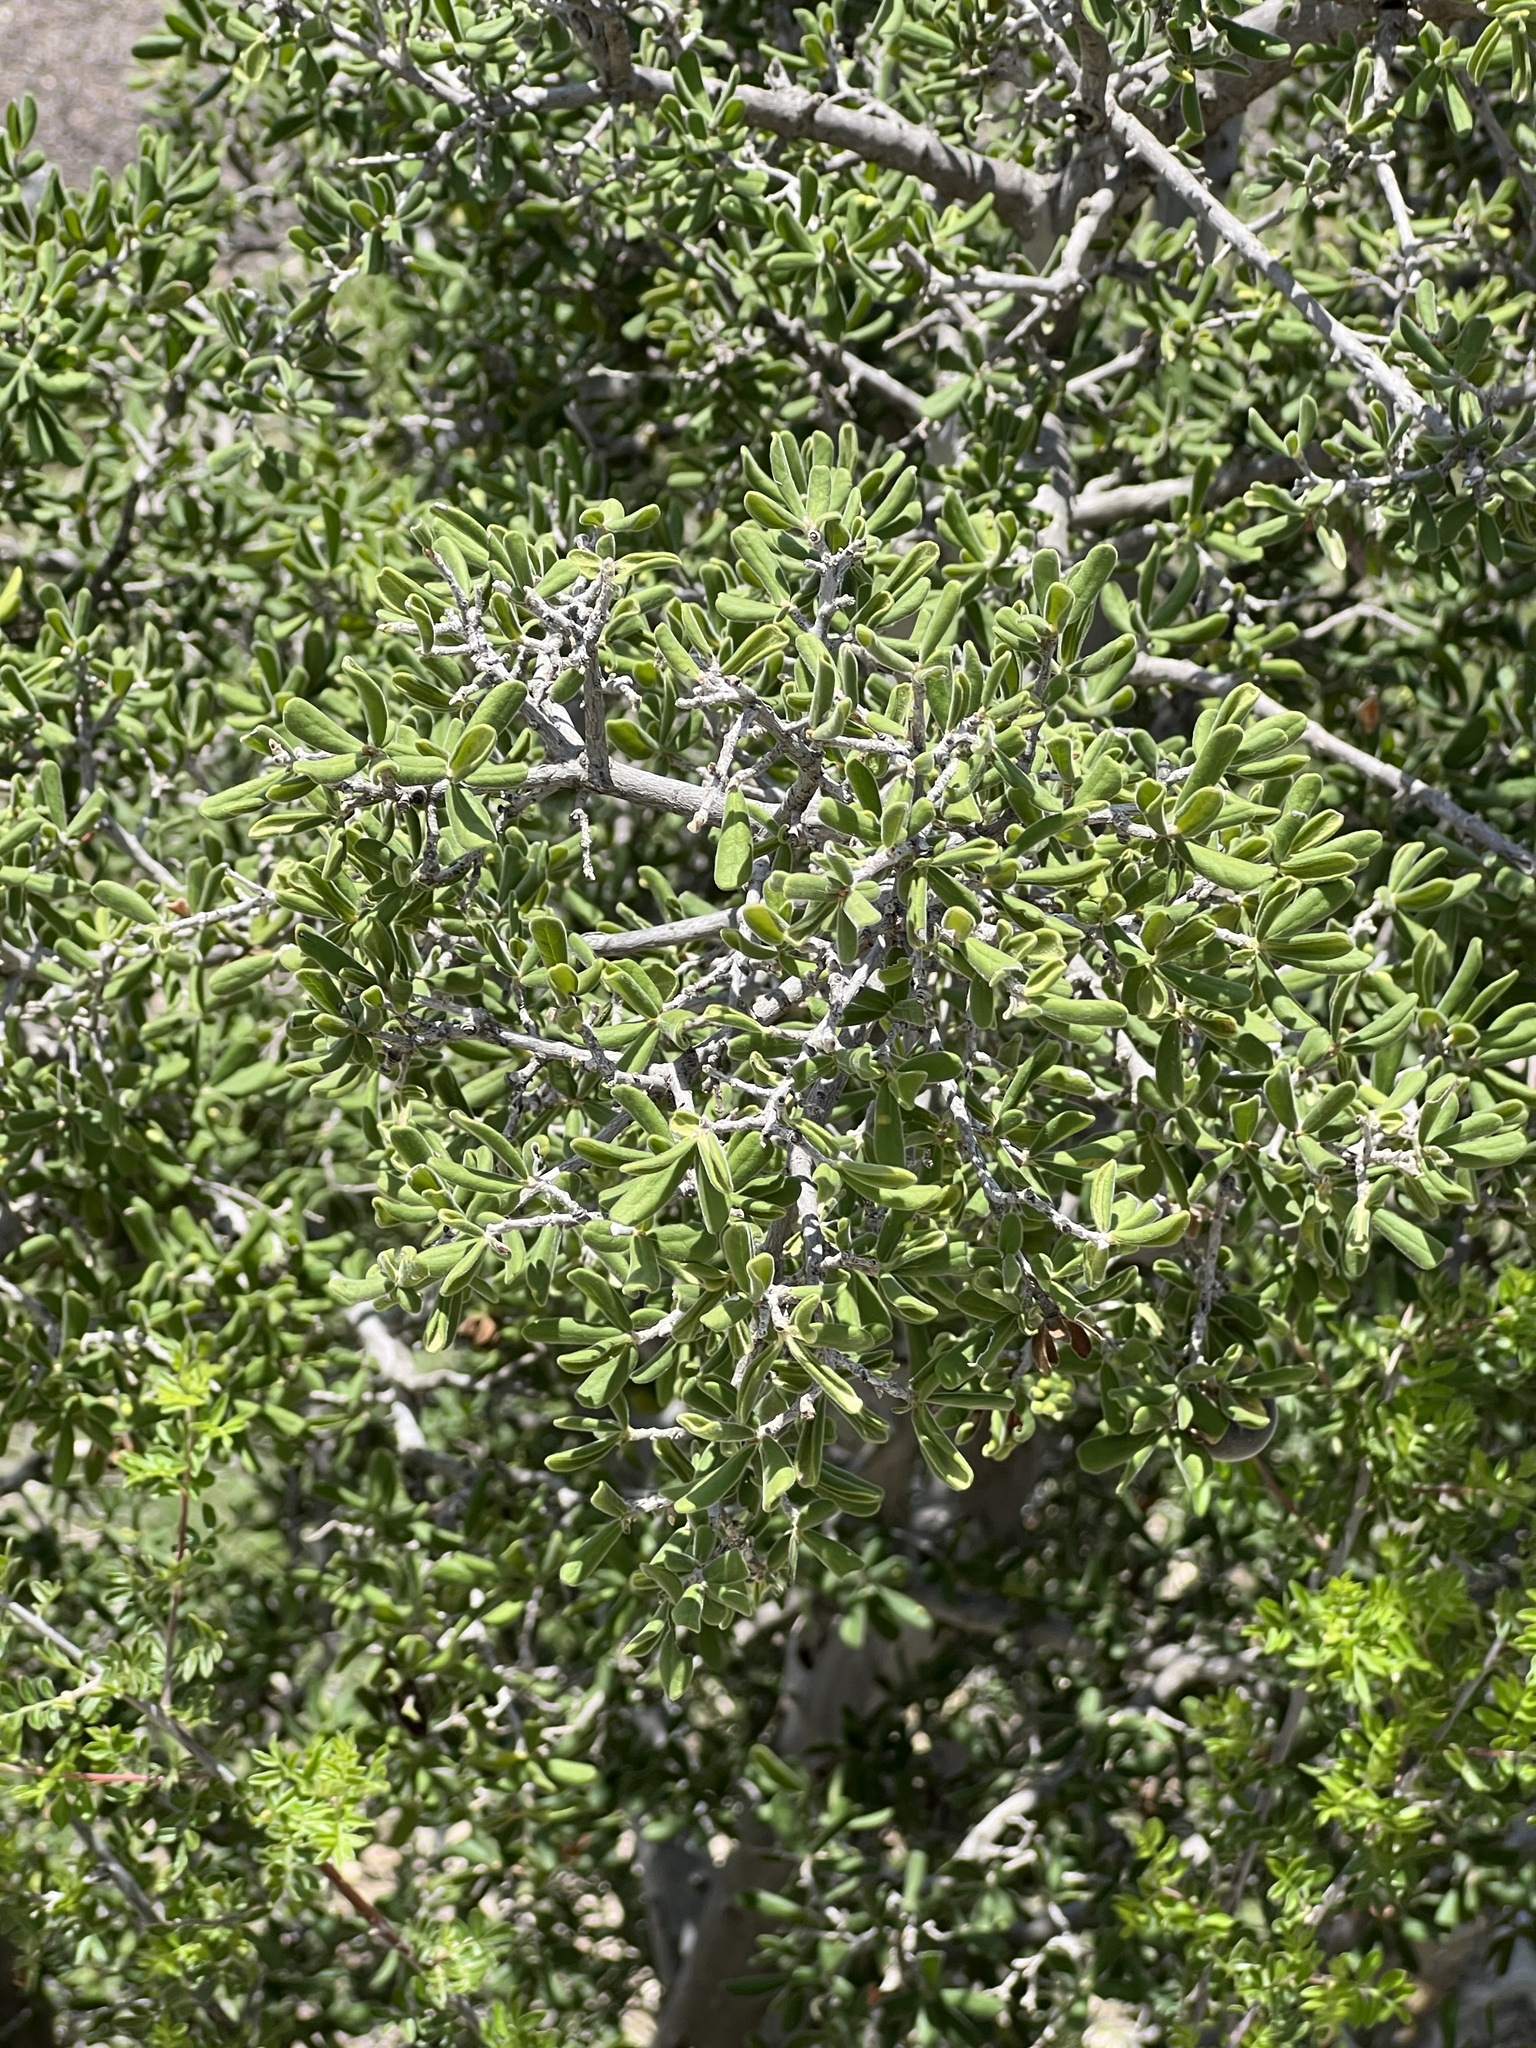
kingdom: Plantae
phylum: Tracheophyta
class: Magnoliopsida
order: Ericales
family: Ebenaceae
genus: Diospyros
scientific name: Diospyros texana
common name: Texas persimmon
